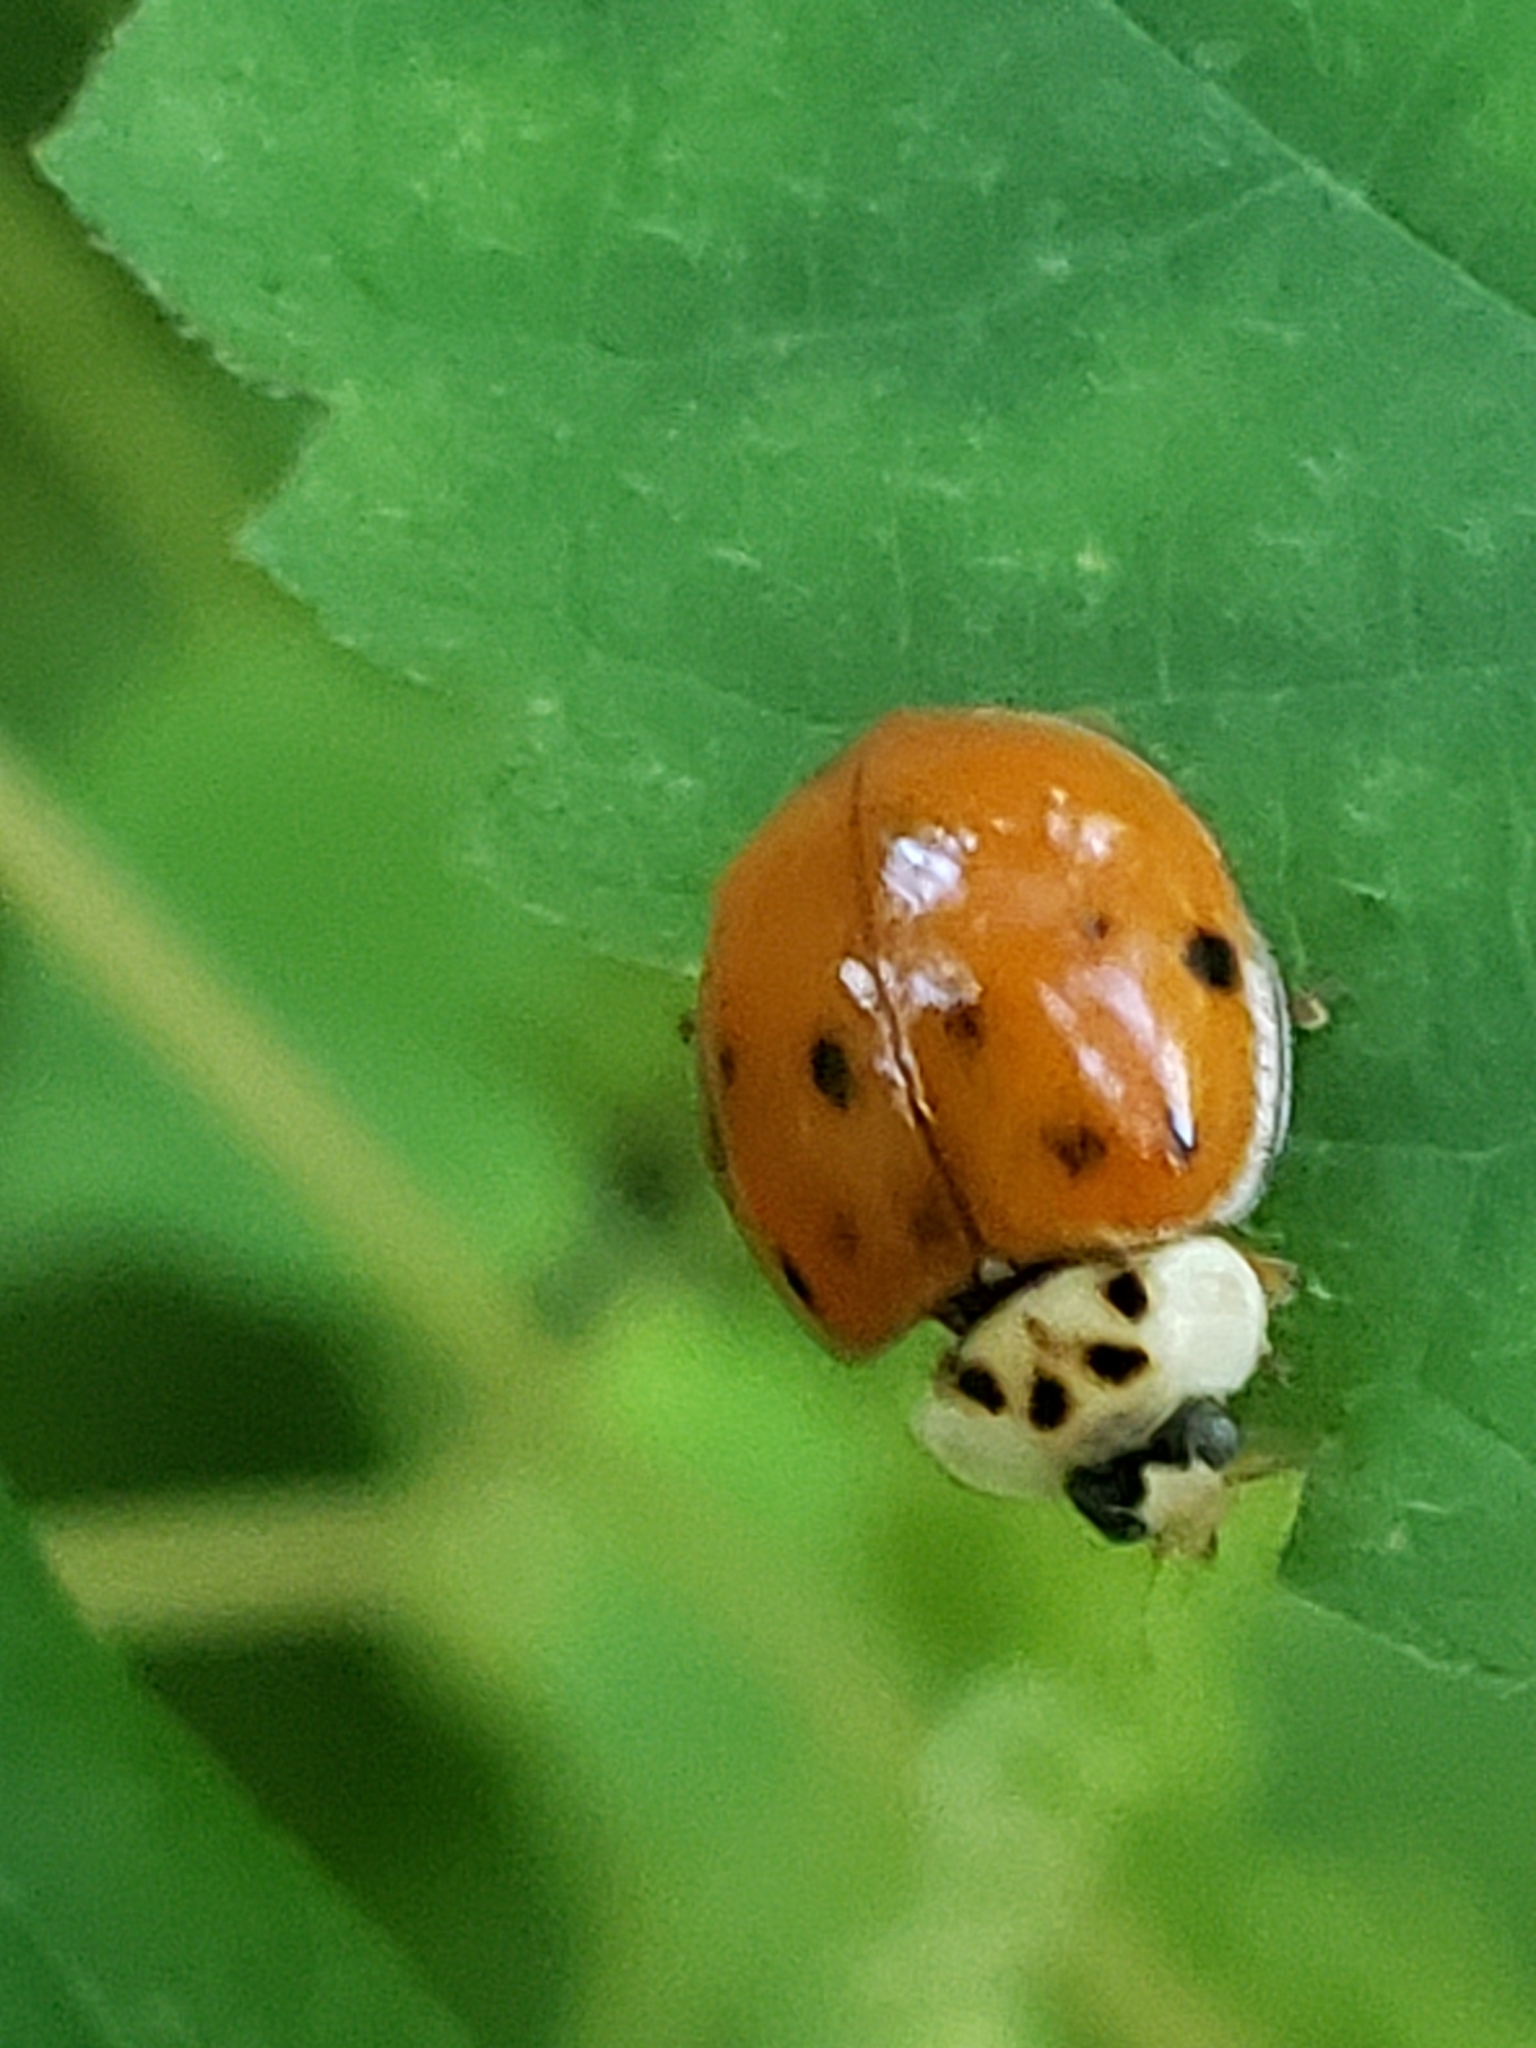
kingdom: Animalia
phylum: Arthropoda
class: Insecta
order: Coleoptera
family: Coccinellidae
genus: Harmonia
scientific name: Harmonia axyridis
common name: Harlequin ladybird
